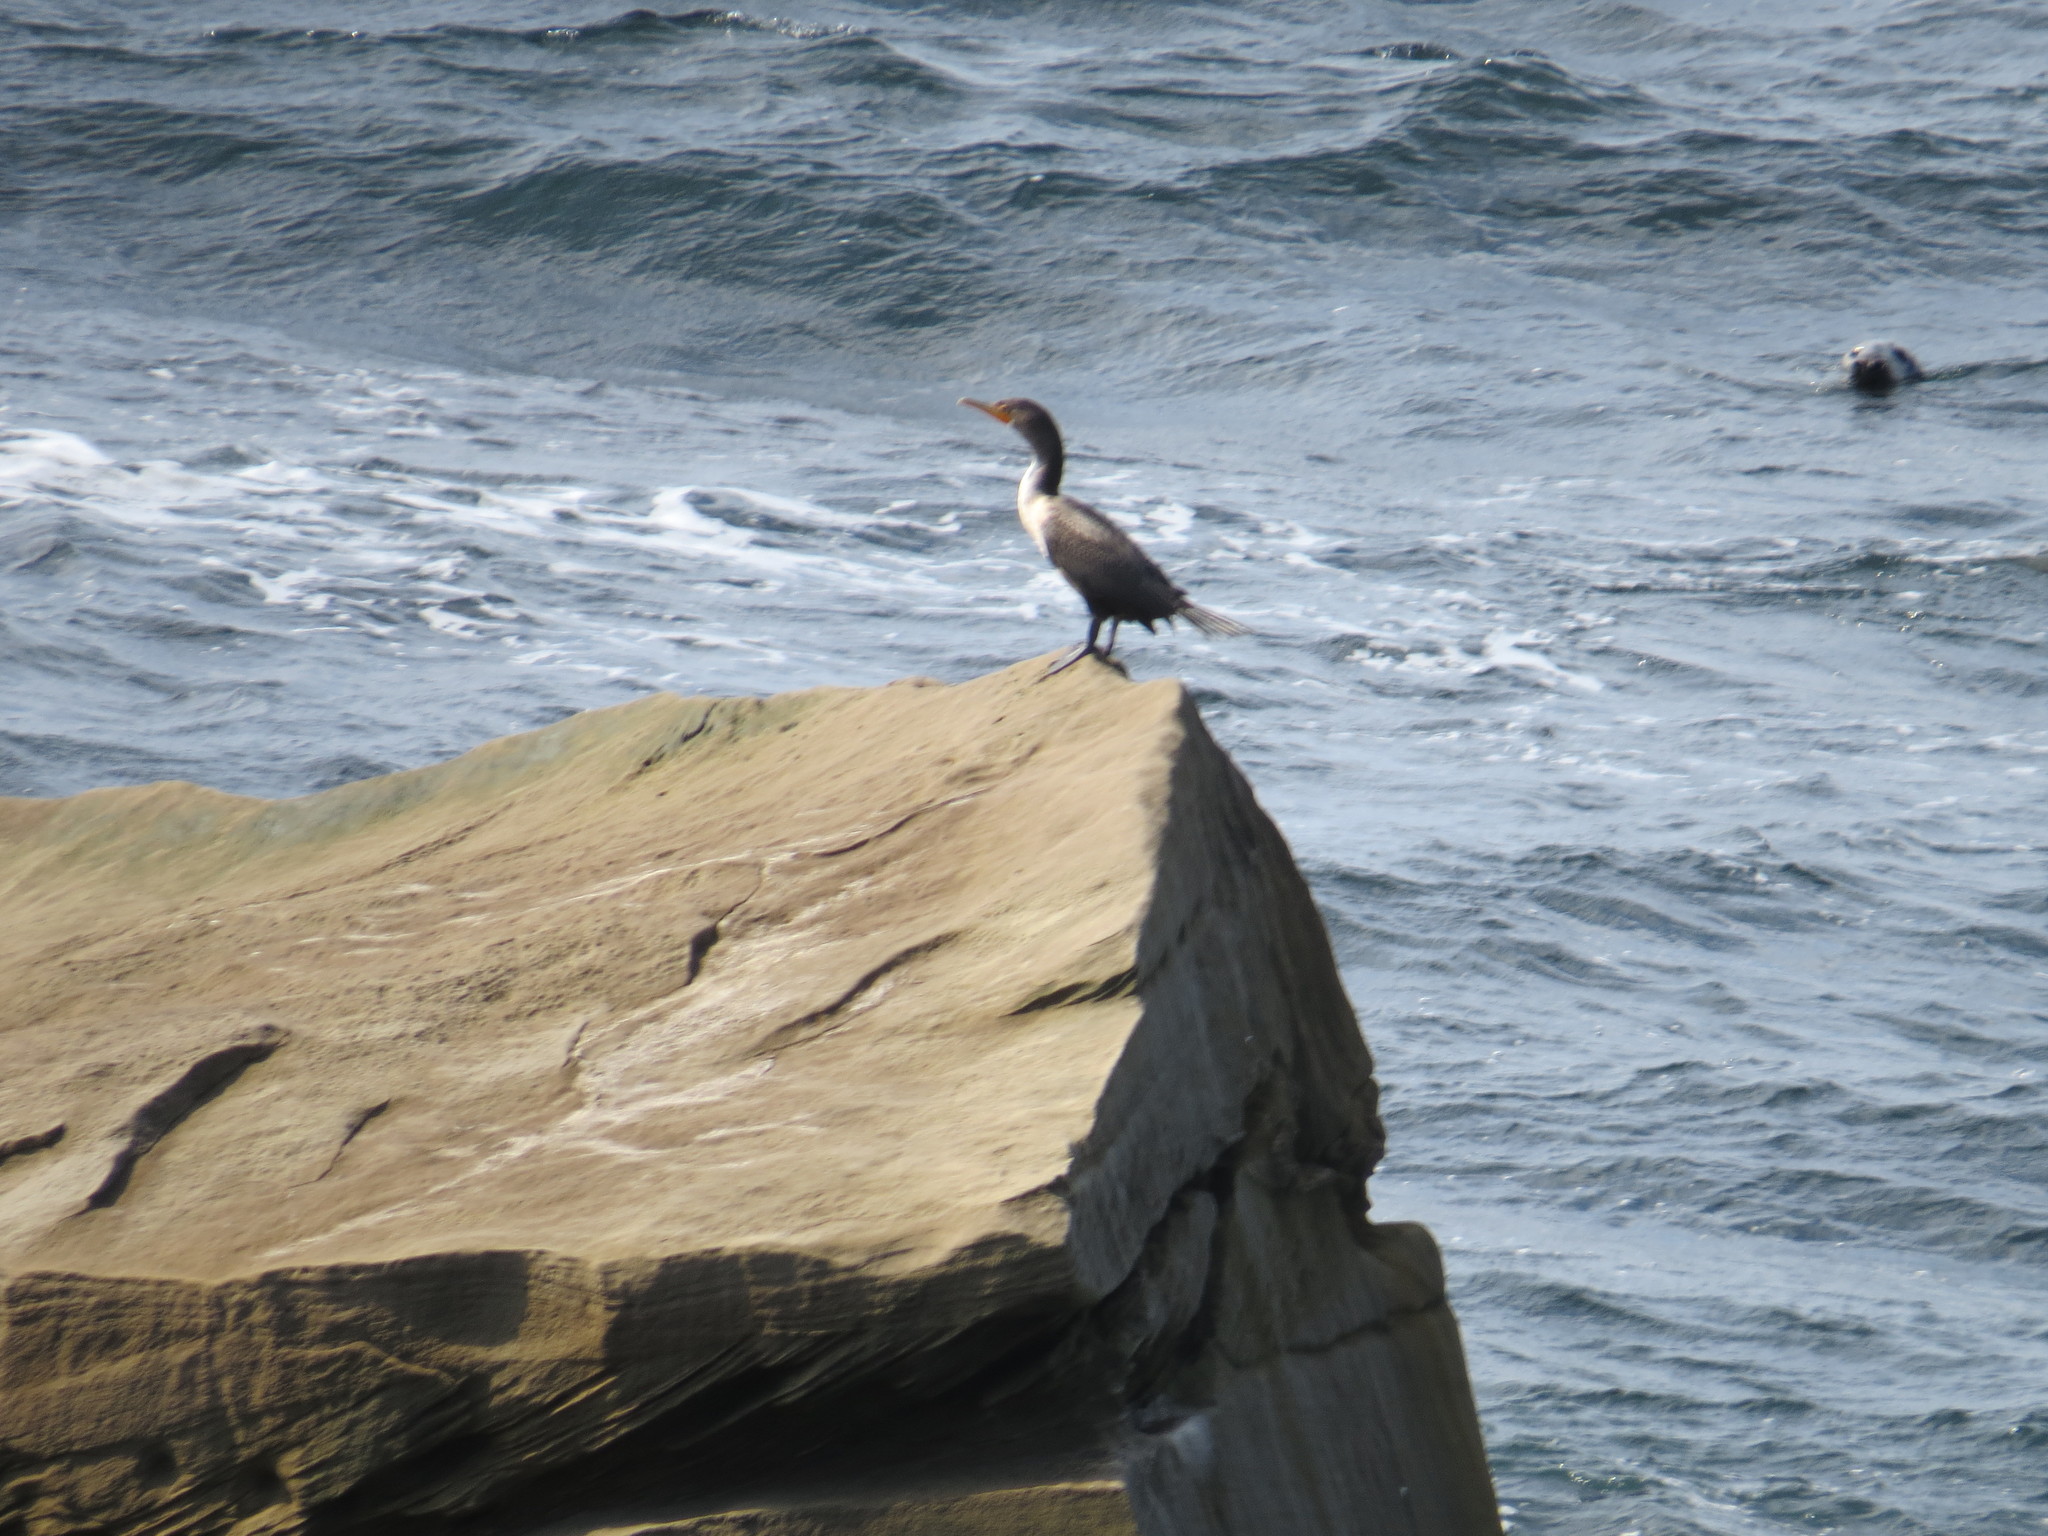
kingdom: Animalia
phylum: Chordata
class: Aves
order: Suliformes
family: Phalacrocoracidae
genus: Phalacrocorax
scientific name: Phalacrocorax auritus
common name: Double-crested cormorant
